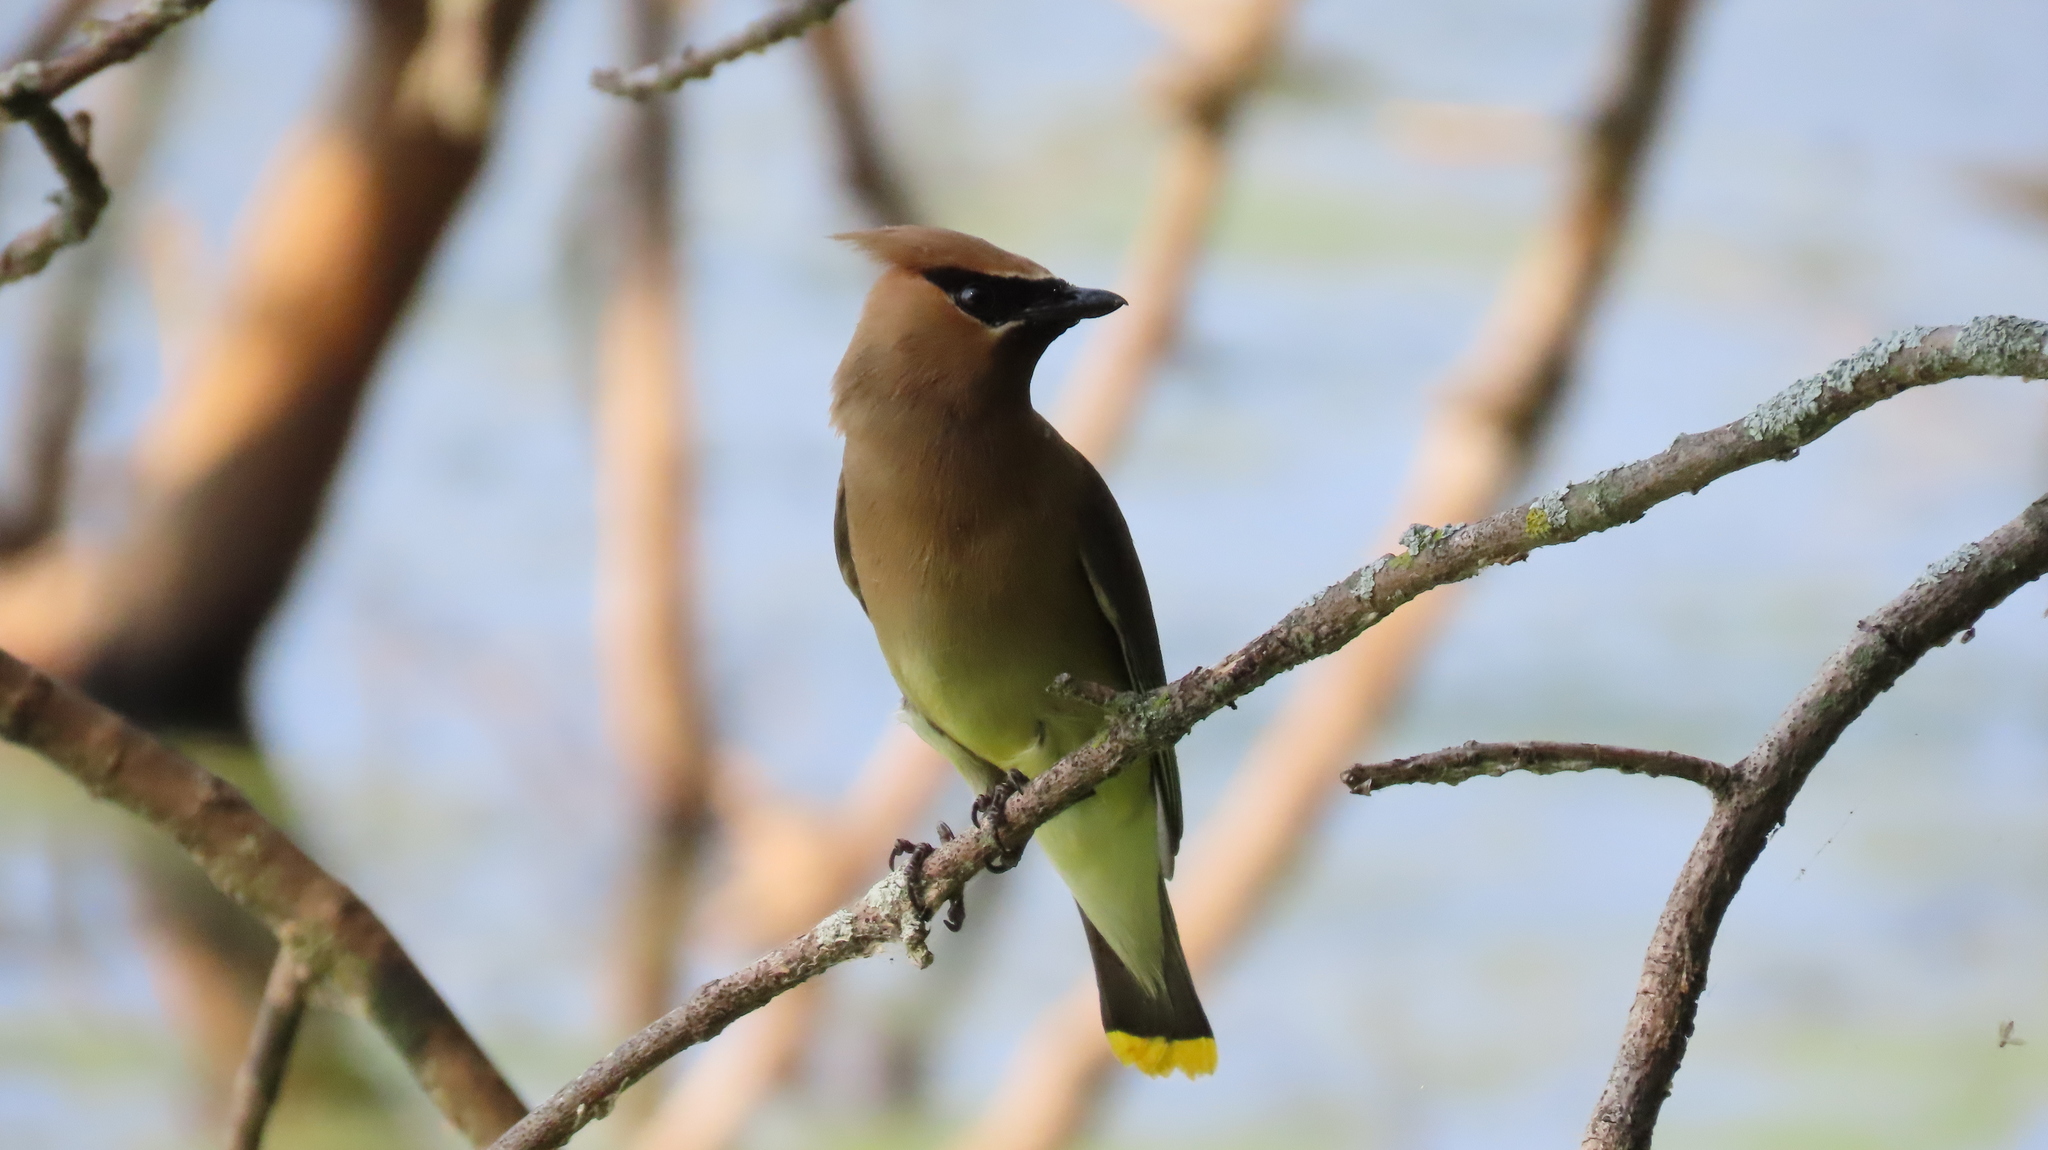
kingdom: Animalia
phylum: Chordata
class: Aves
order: Passeriformes
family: Bombycillidae
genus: Bombycilla
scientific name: Bombycilla cedrorum
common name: Cedar waxwing
